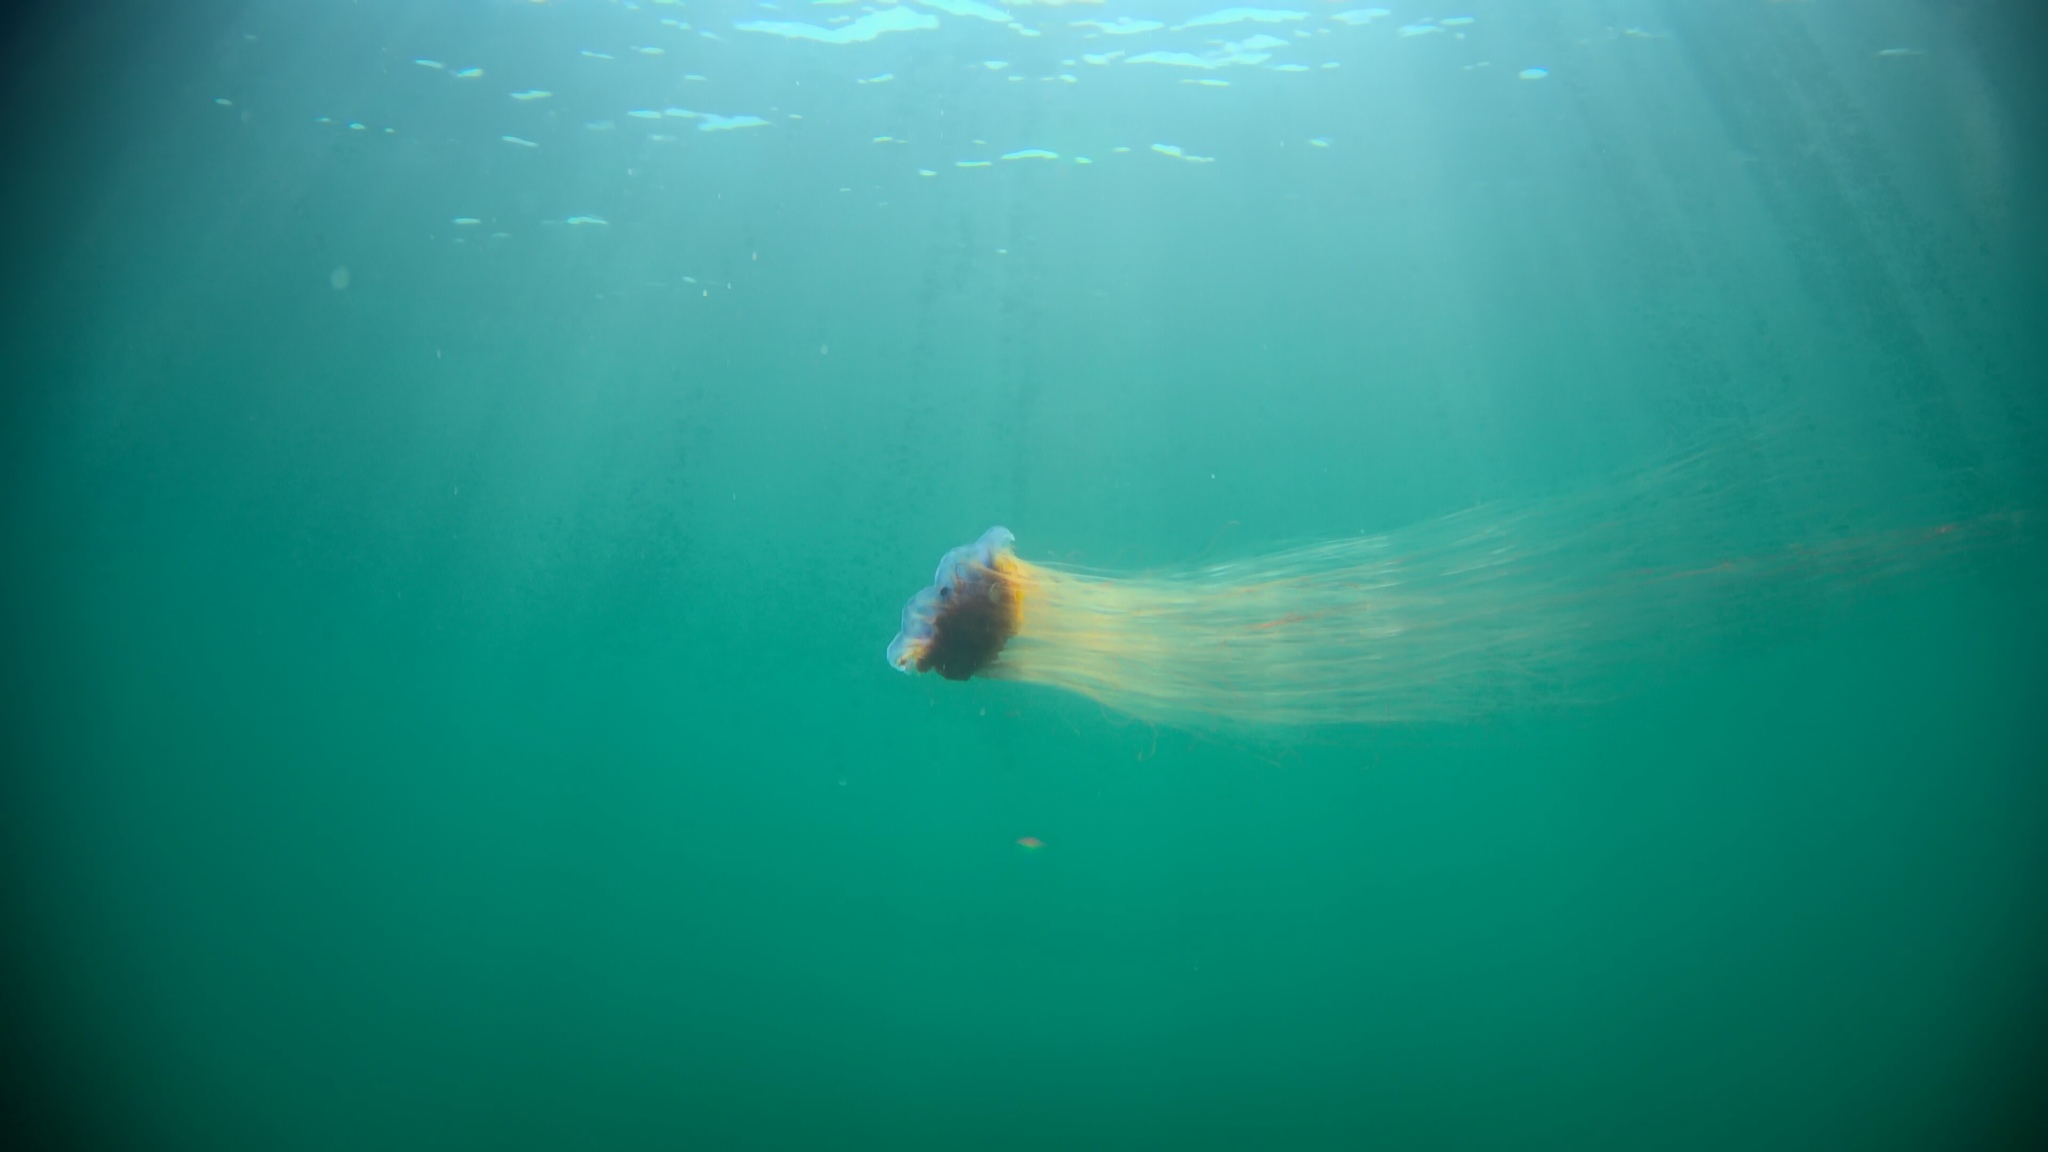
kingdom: Animalia
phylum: Cnidaria
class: Scyphozoa
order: Semaeostomeae
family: Cyaneidae
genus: Cyanea
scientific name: Cyanea
